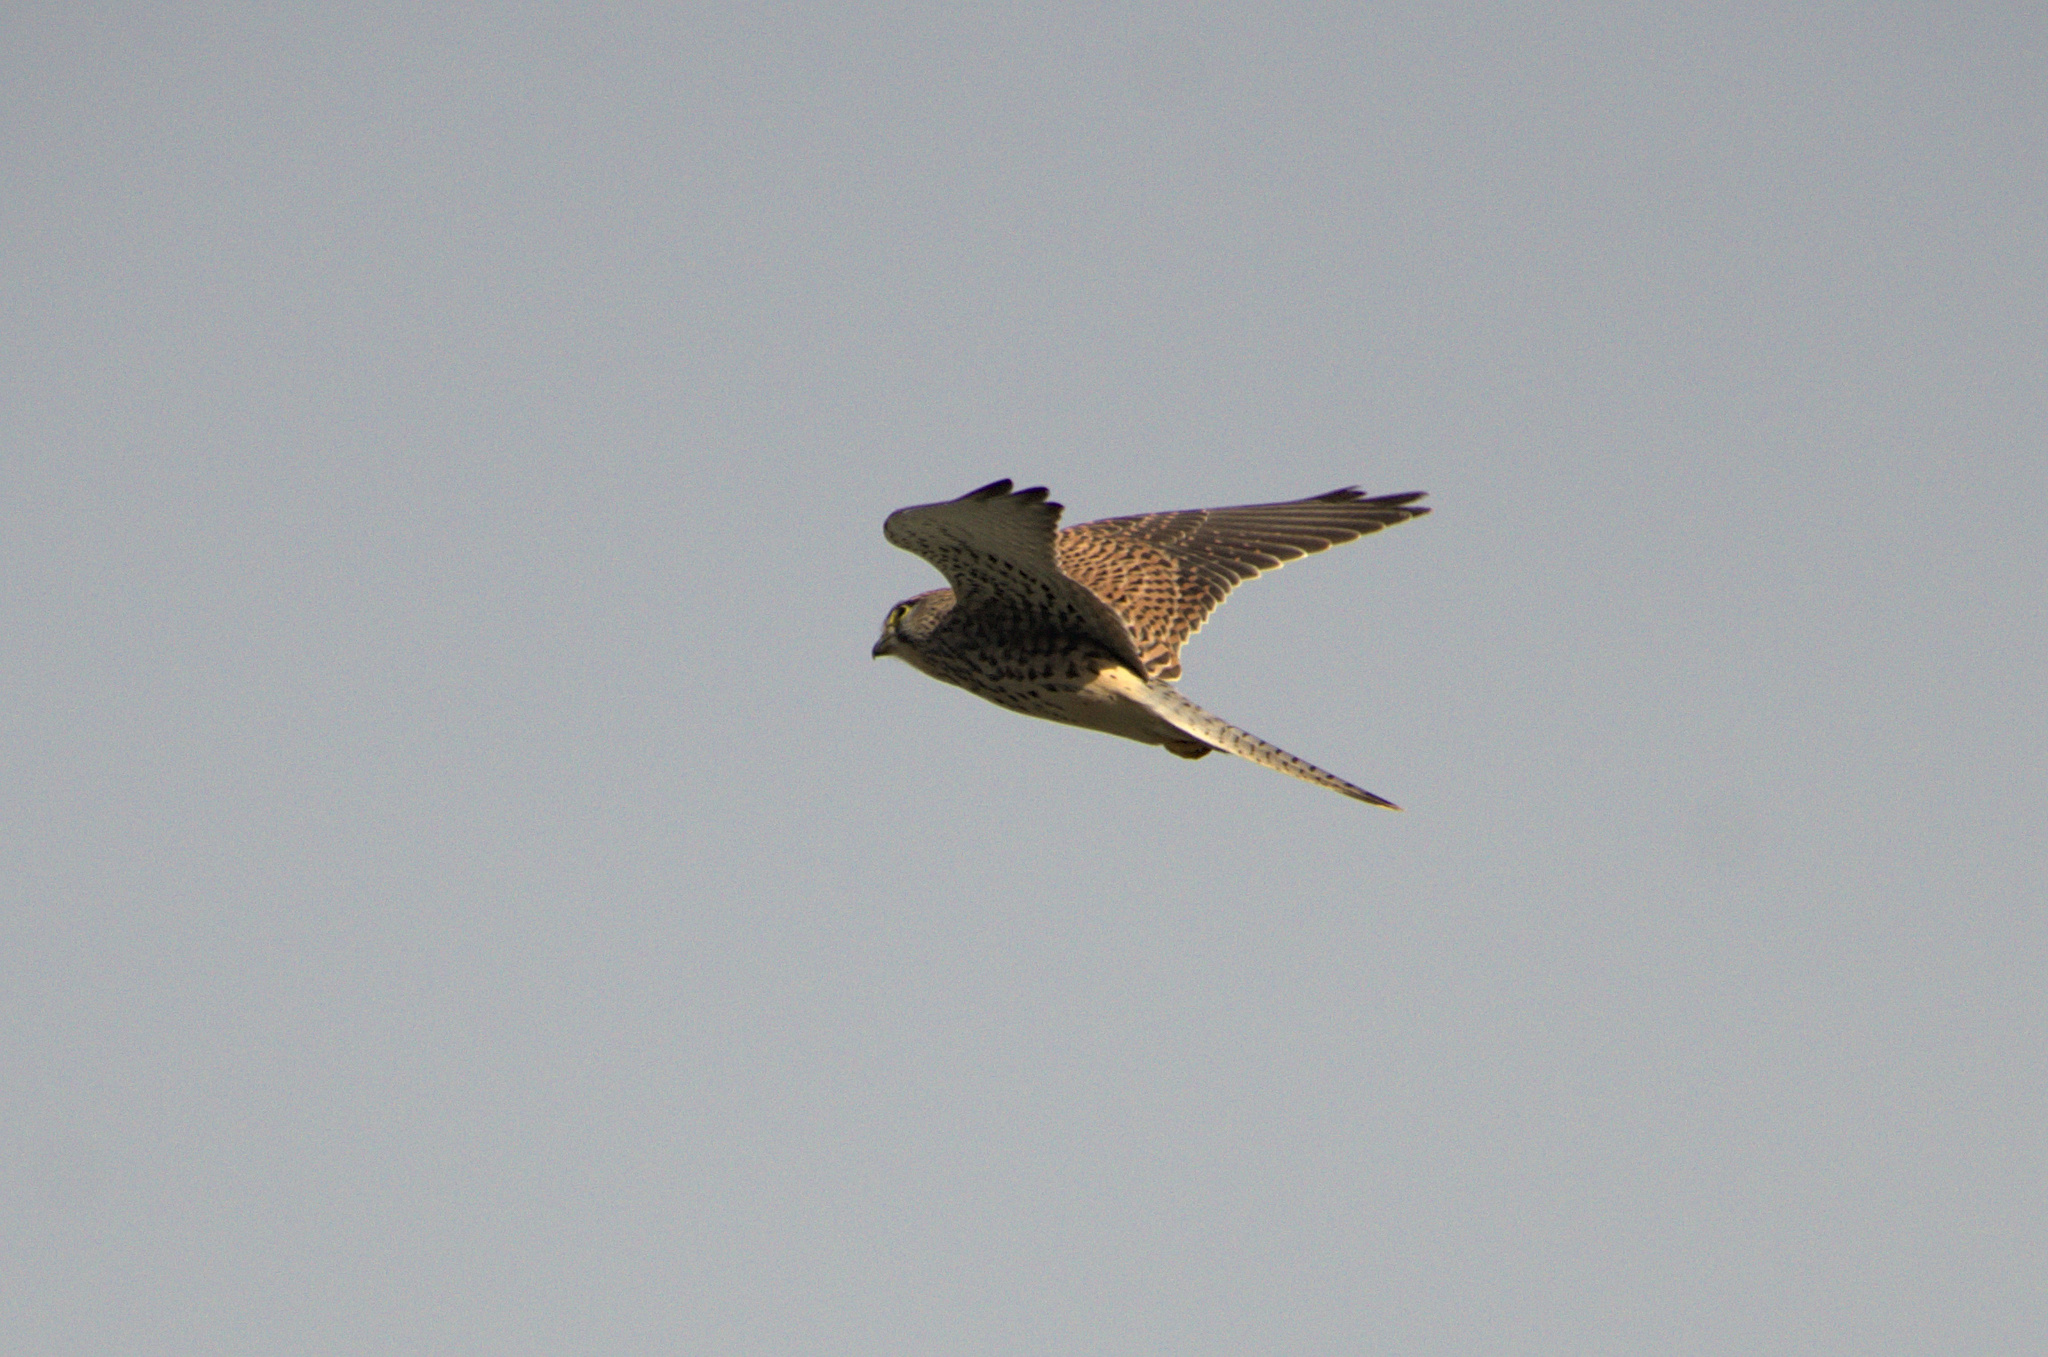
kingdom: Animalia
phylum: Chordata
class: Aves
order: Falconiformes
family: Falconidae
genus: Falco
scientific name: Falco tinnunculus
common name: Common kestrel
